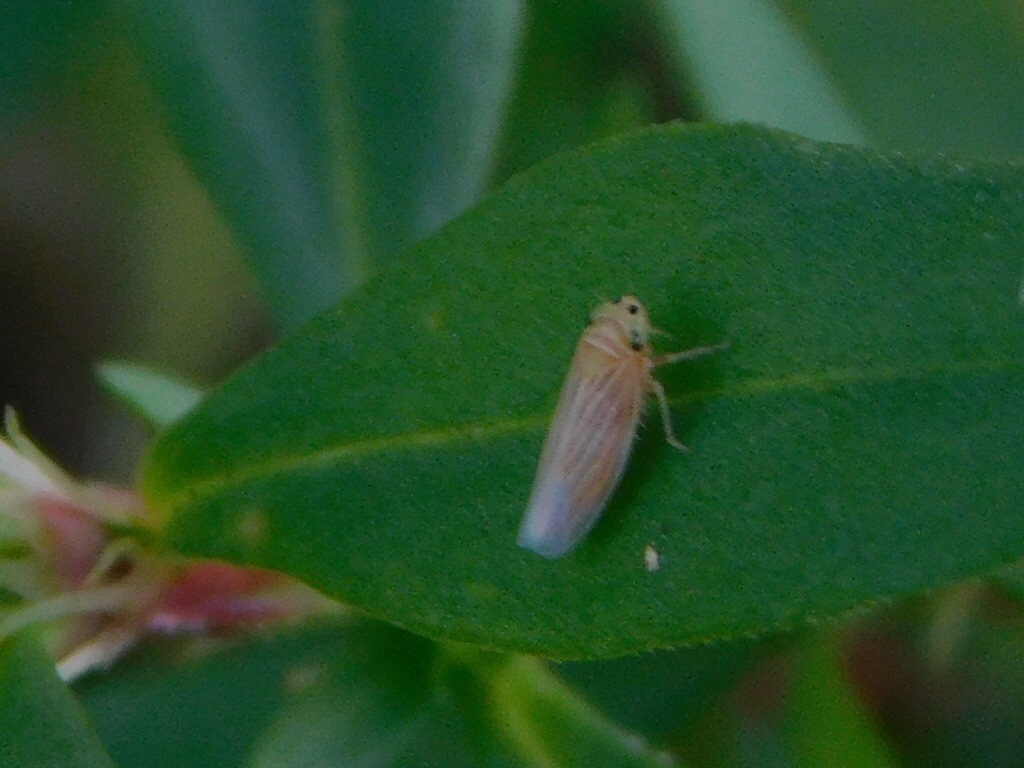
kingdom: Animalia
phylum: Arthropoda
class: Insecta
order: Hemiptera
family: Cicadellidae
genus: Graminella
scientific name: Graminella villicus
